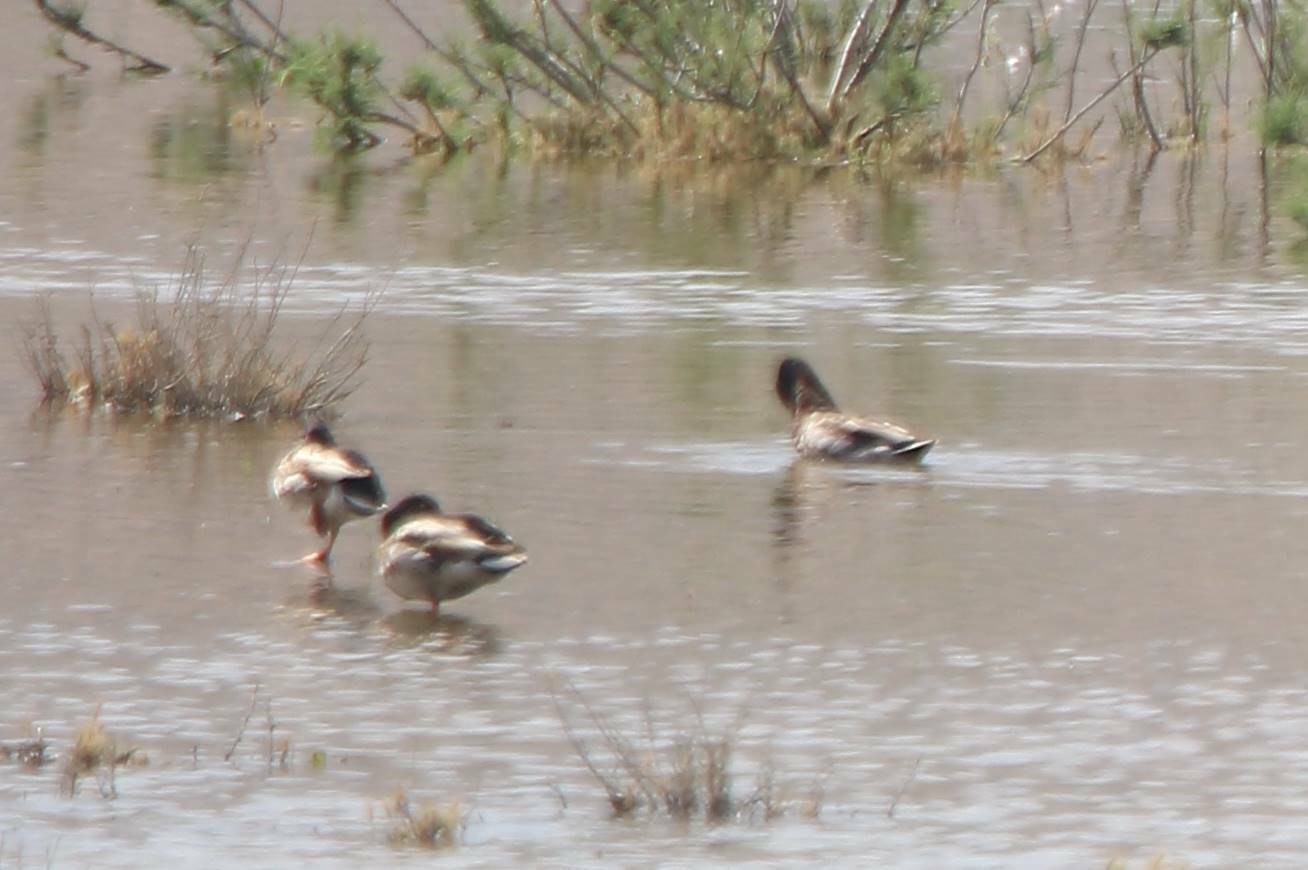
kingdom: Animalia
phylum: Chordata
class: Aves
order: Anseriformes
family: Anatidae
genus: Anas
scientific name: Anas platyrhynchos
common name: Mallard
